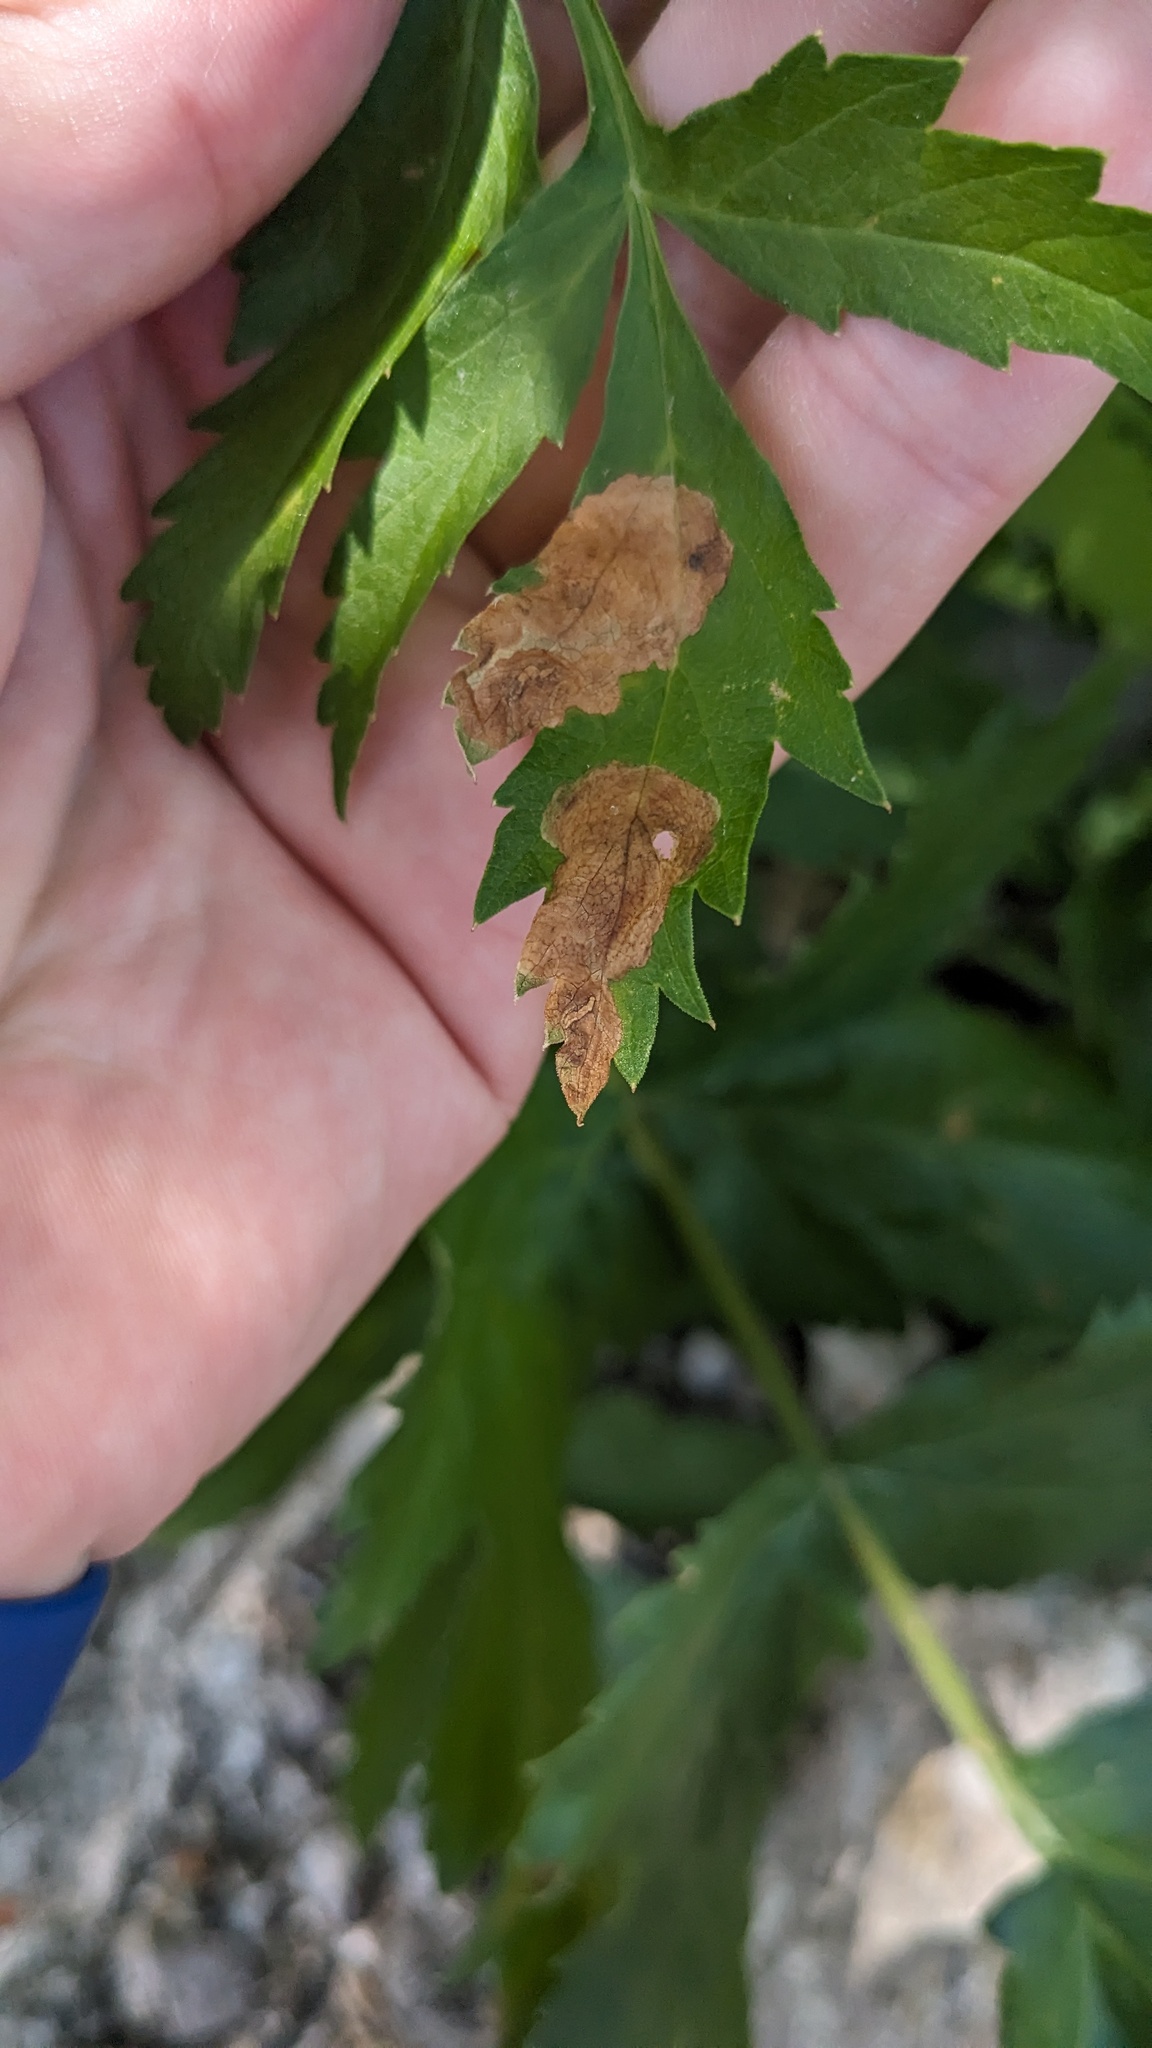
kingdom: Animalia
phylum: Arthropoda
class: Insecta
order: Diptera
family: Tephritidae
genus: Euleia
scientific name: Euleia fratria
